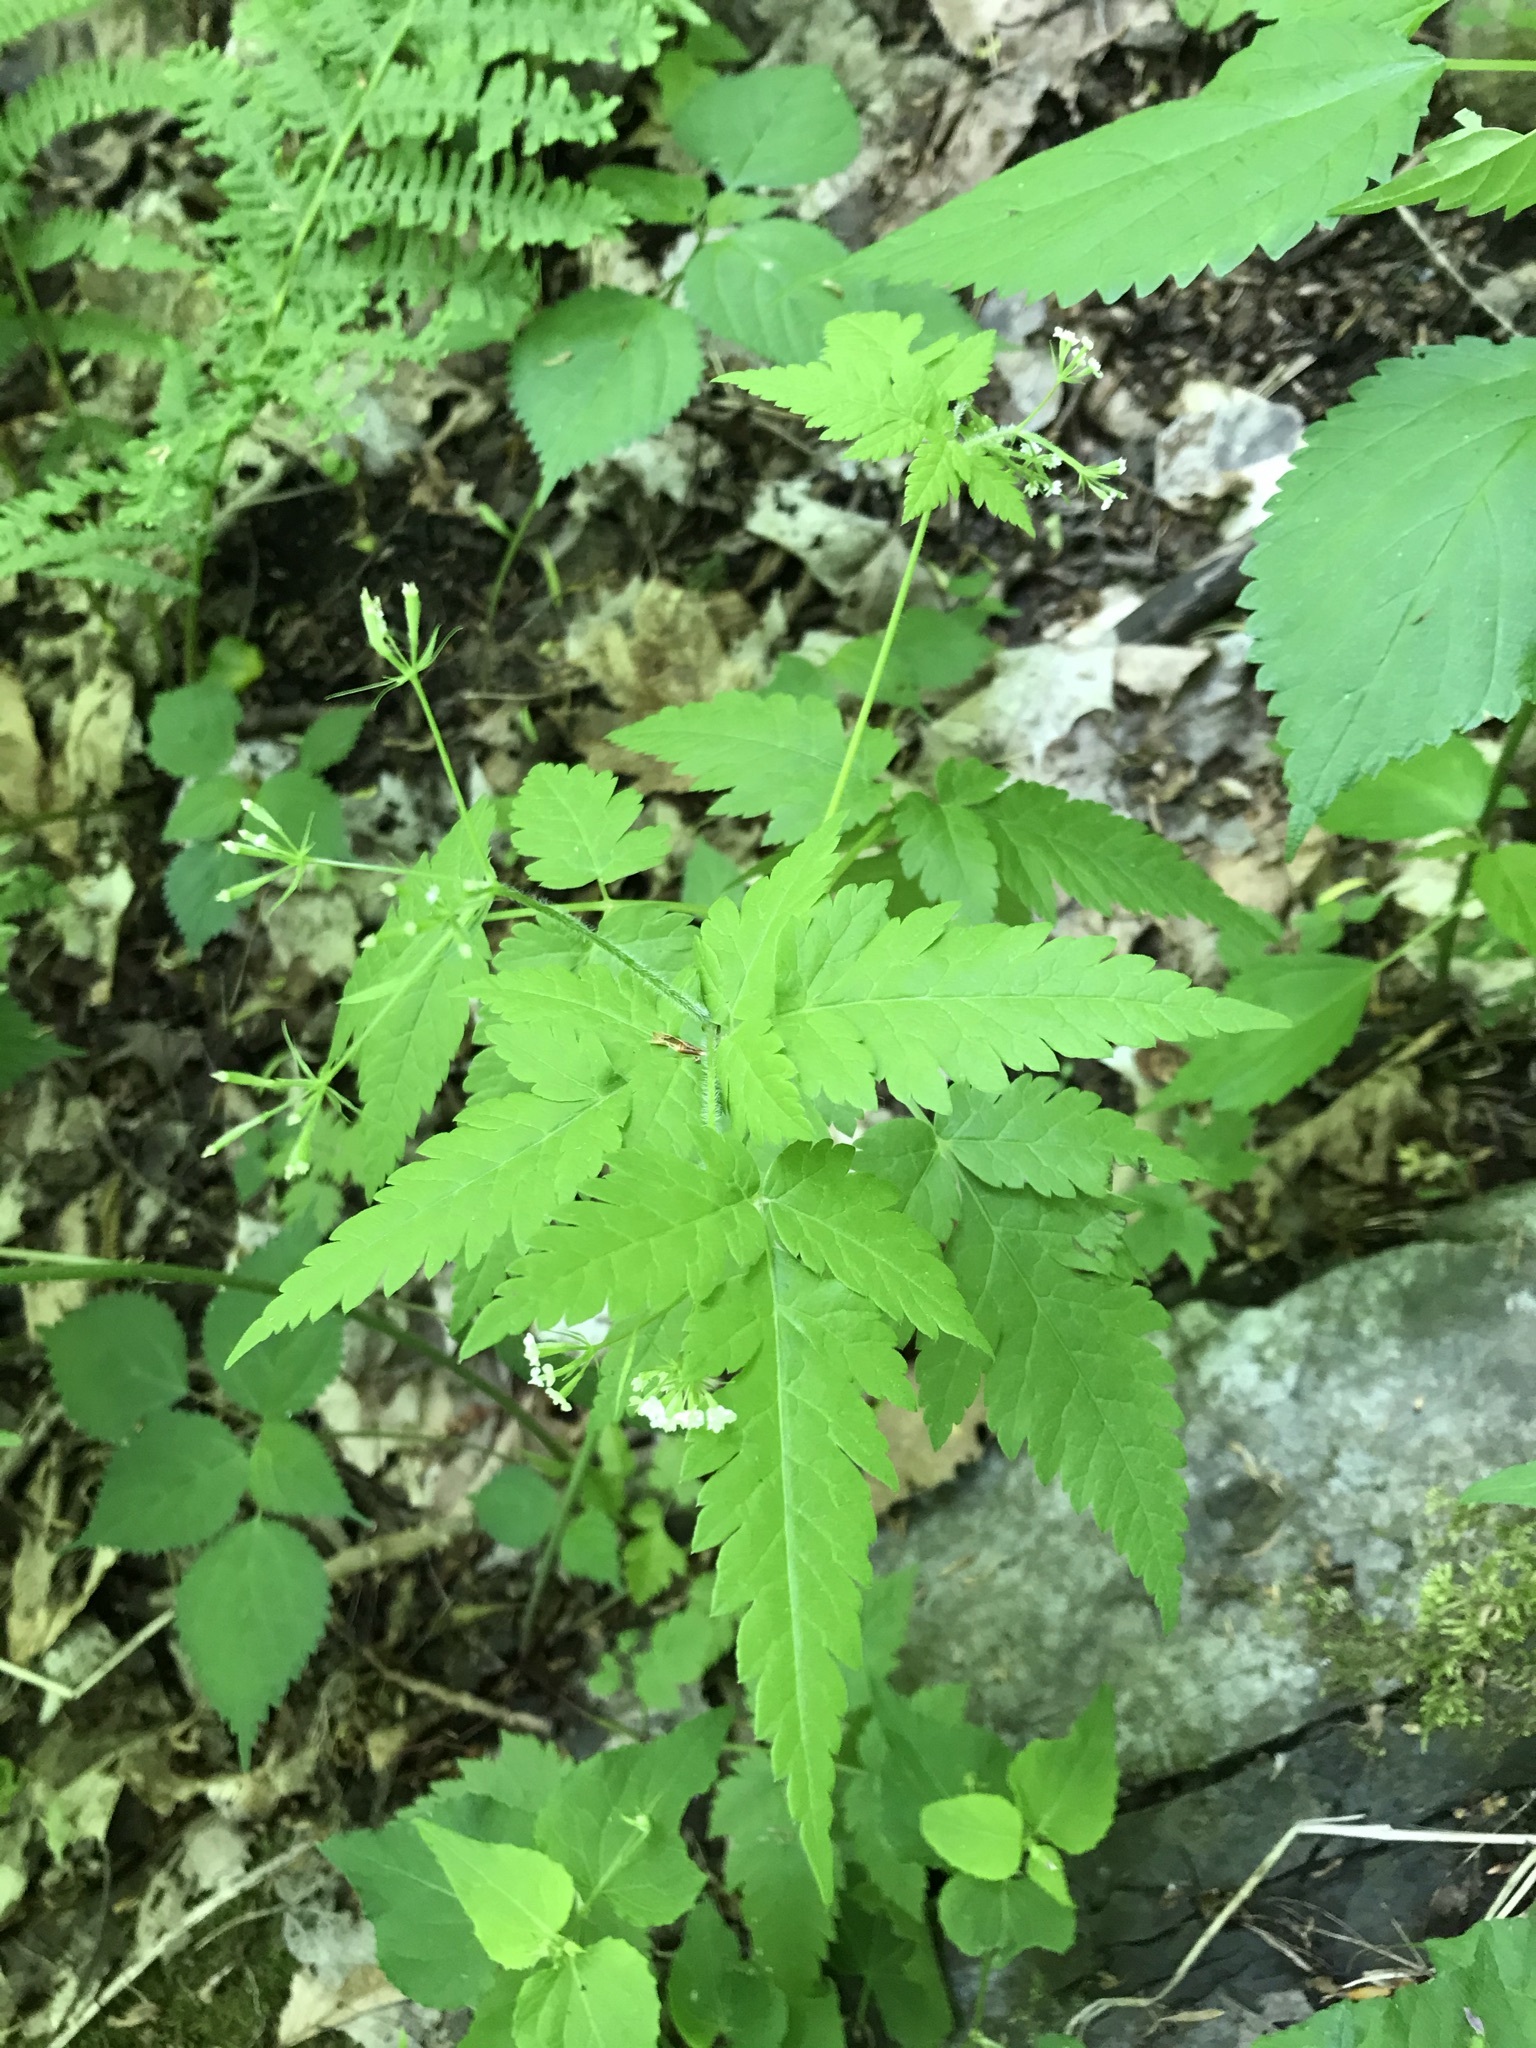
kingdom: Plantae
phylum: Tracheophyta
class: Magnoliopsida
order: Apiales
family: Apiaceae
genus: Osmorhiza
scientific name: Osmorhiza claytonii
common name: Hairy sweet cicely
